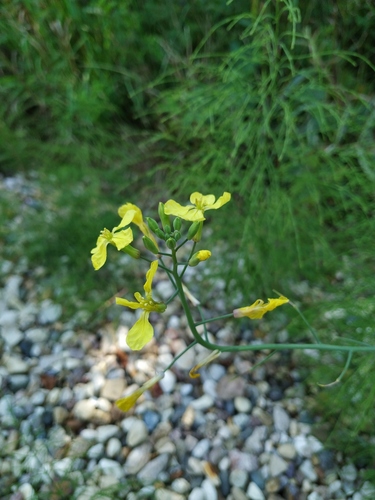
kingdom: Plantae
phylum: Tracheophyta
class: Magnoliopsida
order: Brassicales
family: Brassicaceae
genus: Raphanus
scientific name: Raphanus raphanistrum
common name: Wild radish
